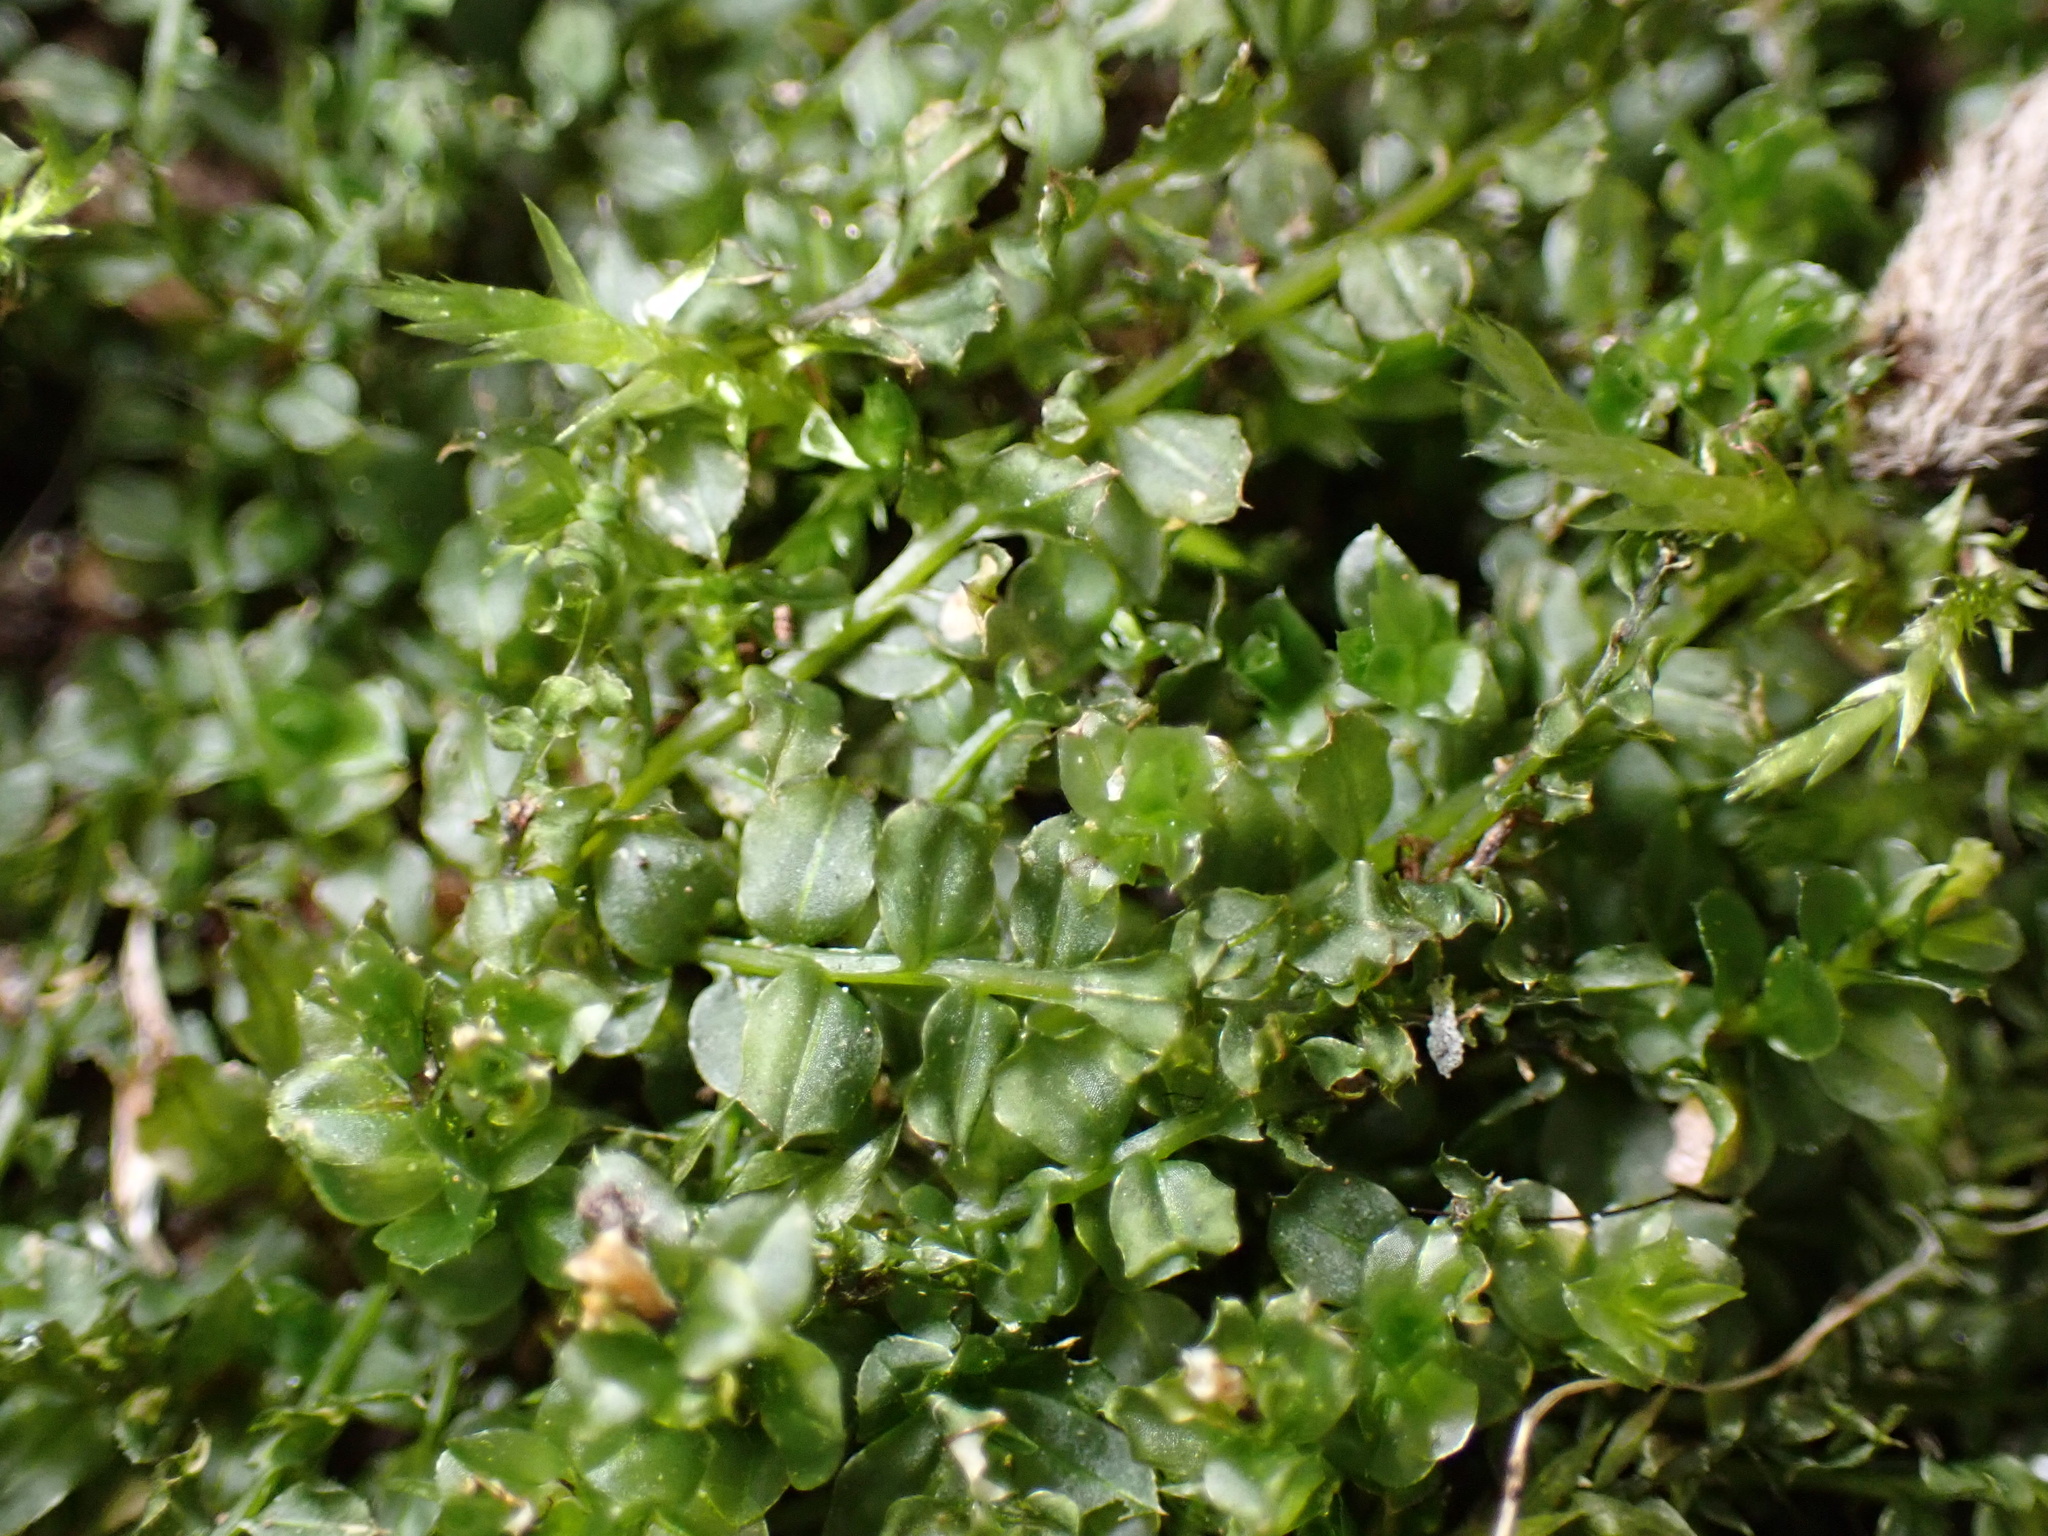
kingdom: Plantae
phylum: Bryophyta
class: Bryopsida
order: Bryales
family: Mniaceae
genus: Plagiomnium
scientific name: Plagiomnium cuspidatum
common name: Woodsy leafy moss
